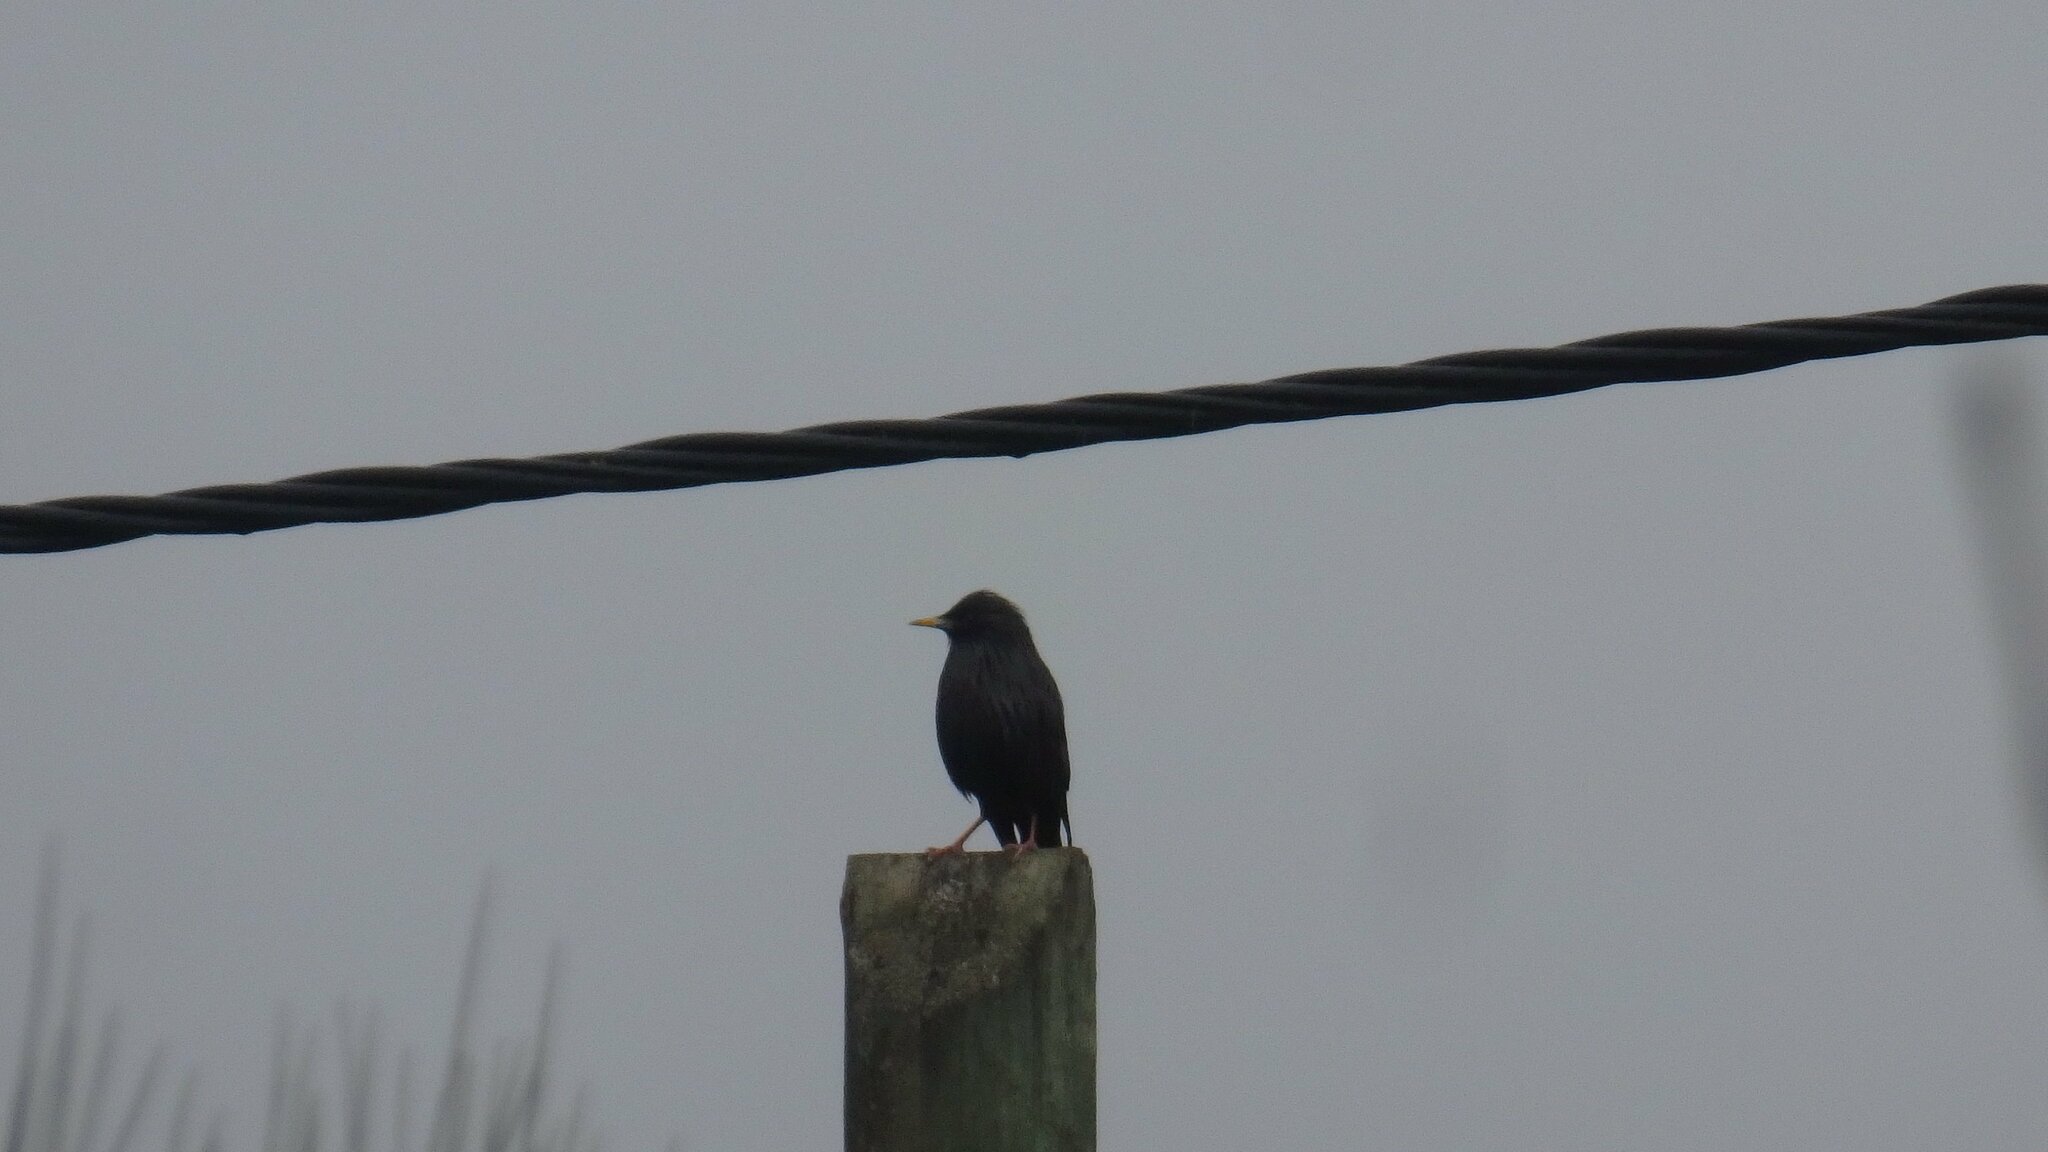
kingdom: Animalia
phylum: Chordata
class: Aves
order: Passeriformes
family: Sturnidae
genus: Sturnus
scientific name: Sturnus unicolor
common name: Spotless starling
